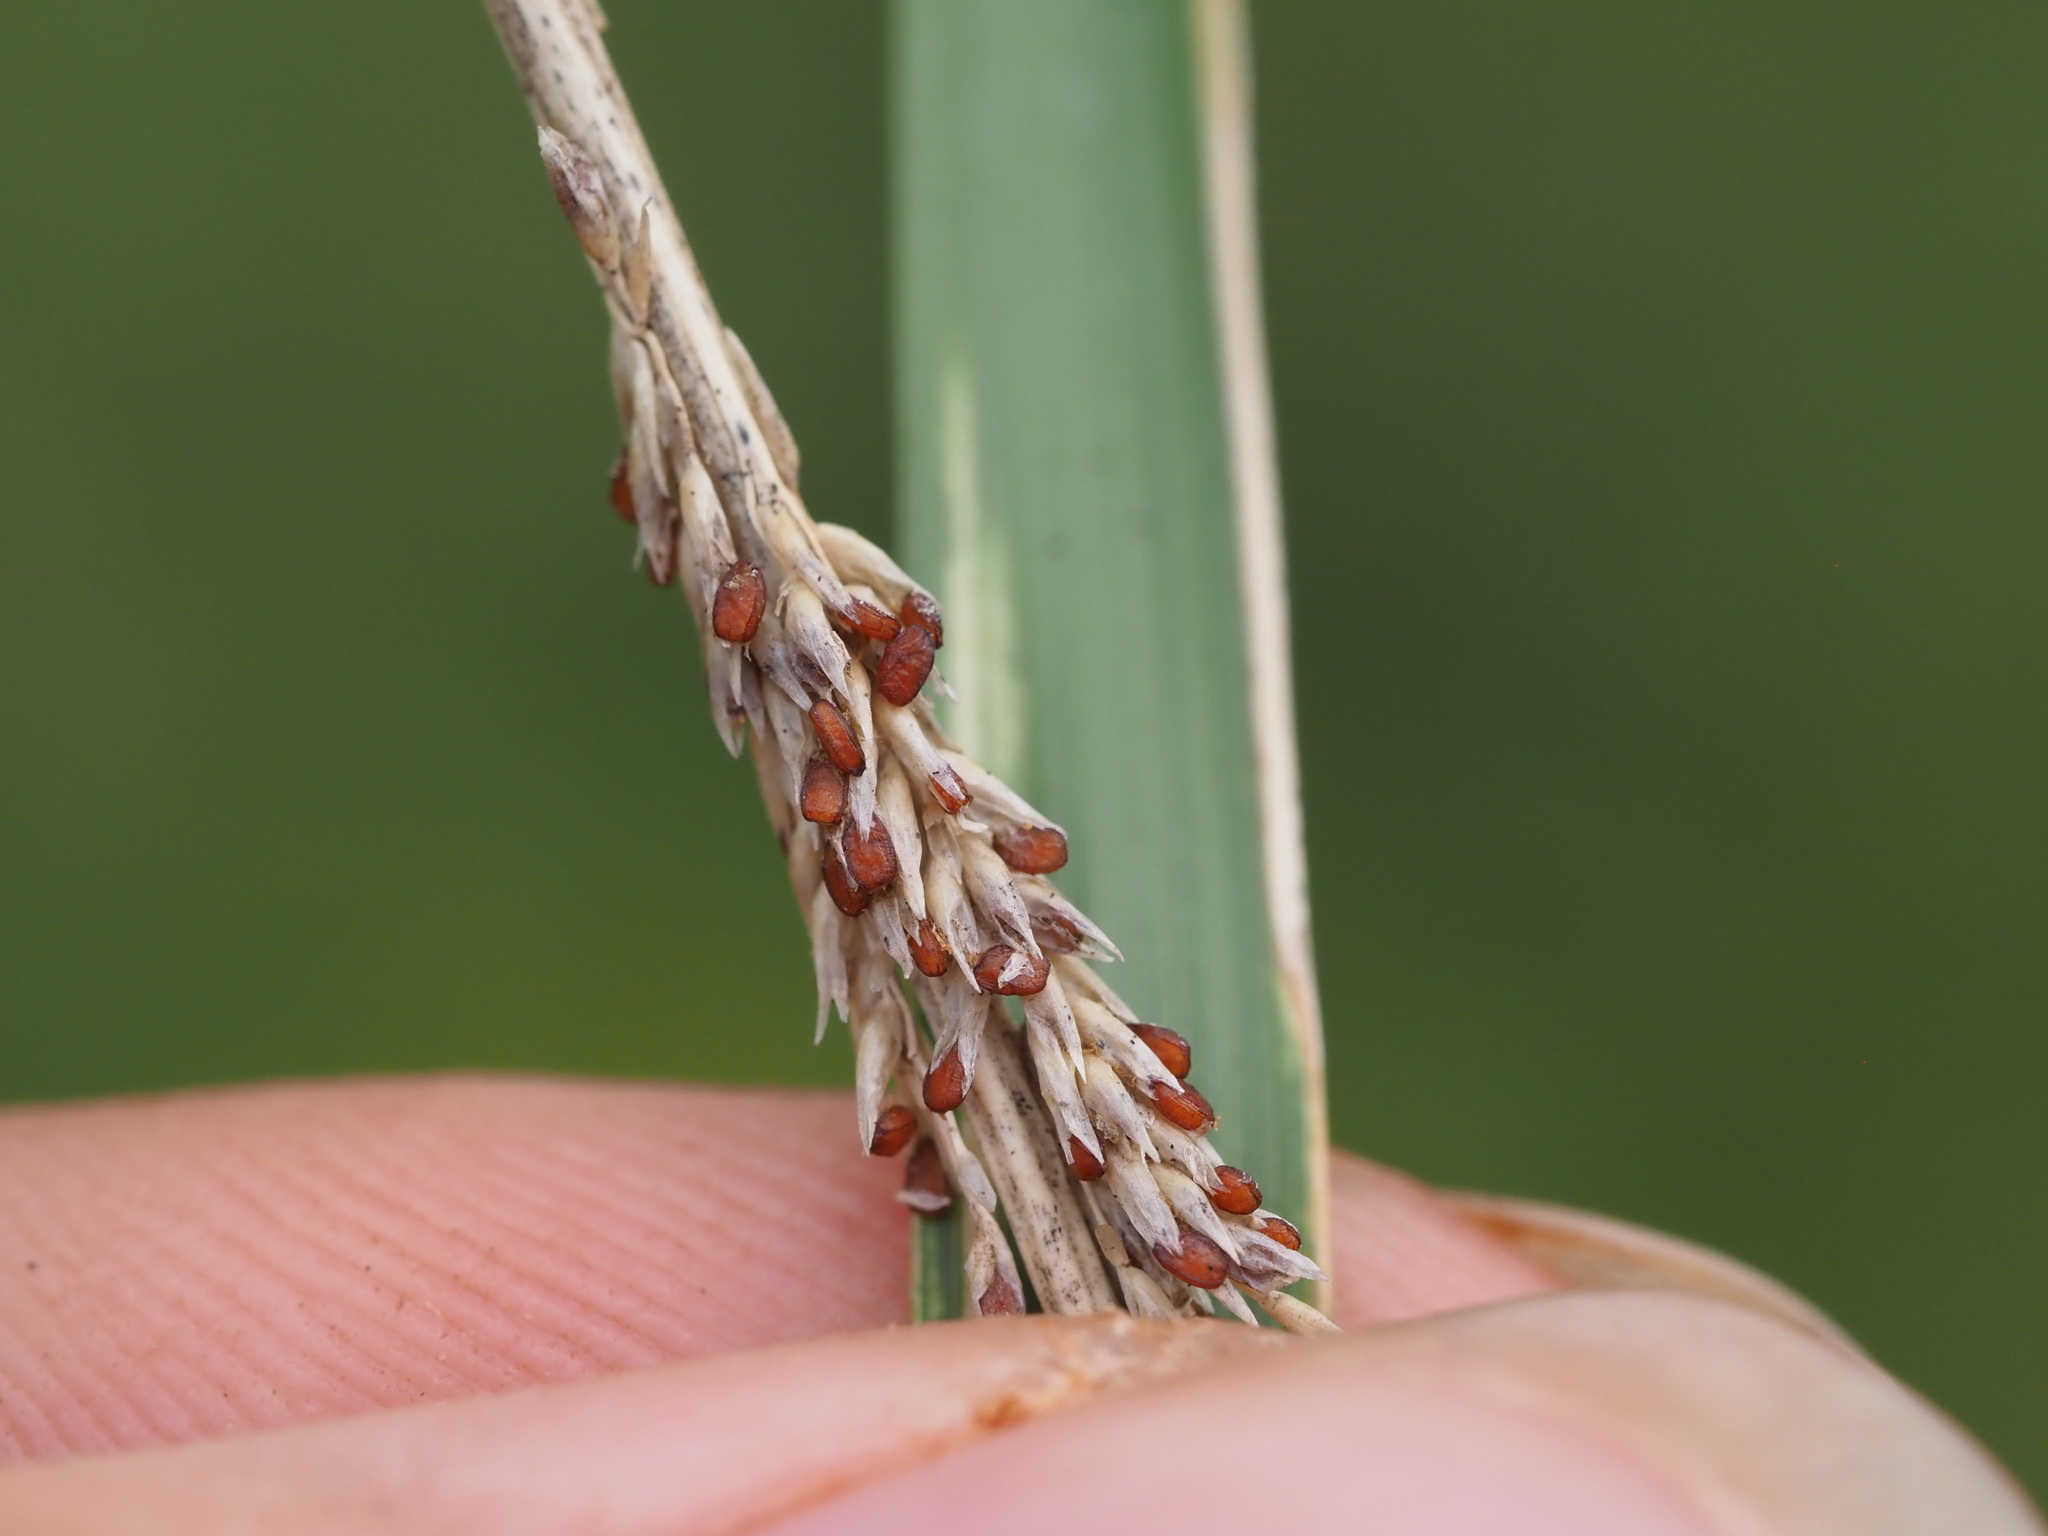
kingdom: Plantae
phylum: Tracheophyta
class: Liliopsida
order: Poales
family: Poaceae
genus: Sporobolus
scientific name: Sporobolus africanus
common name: African dropseed
